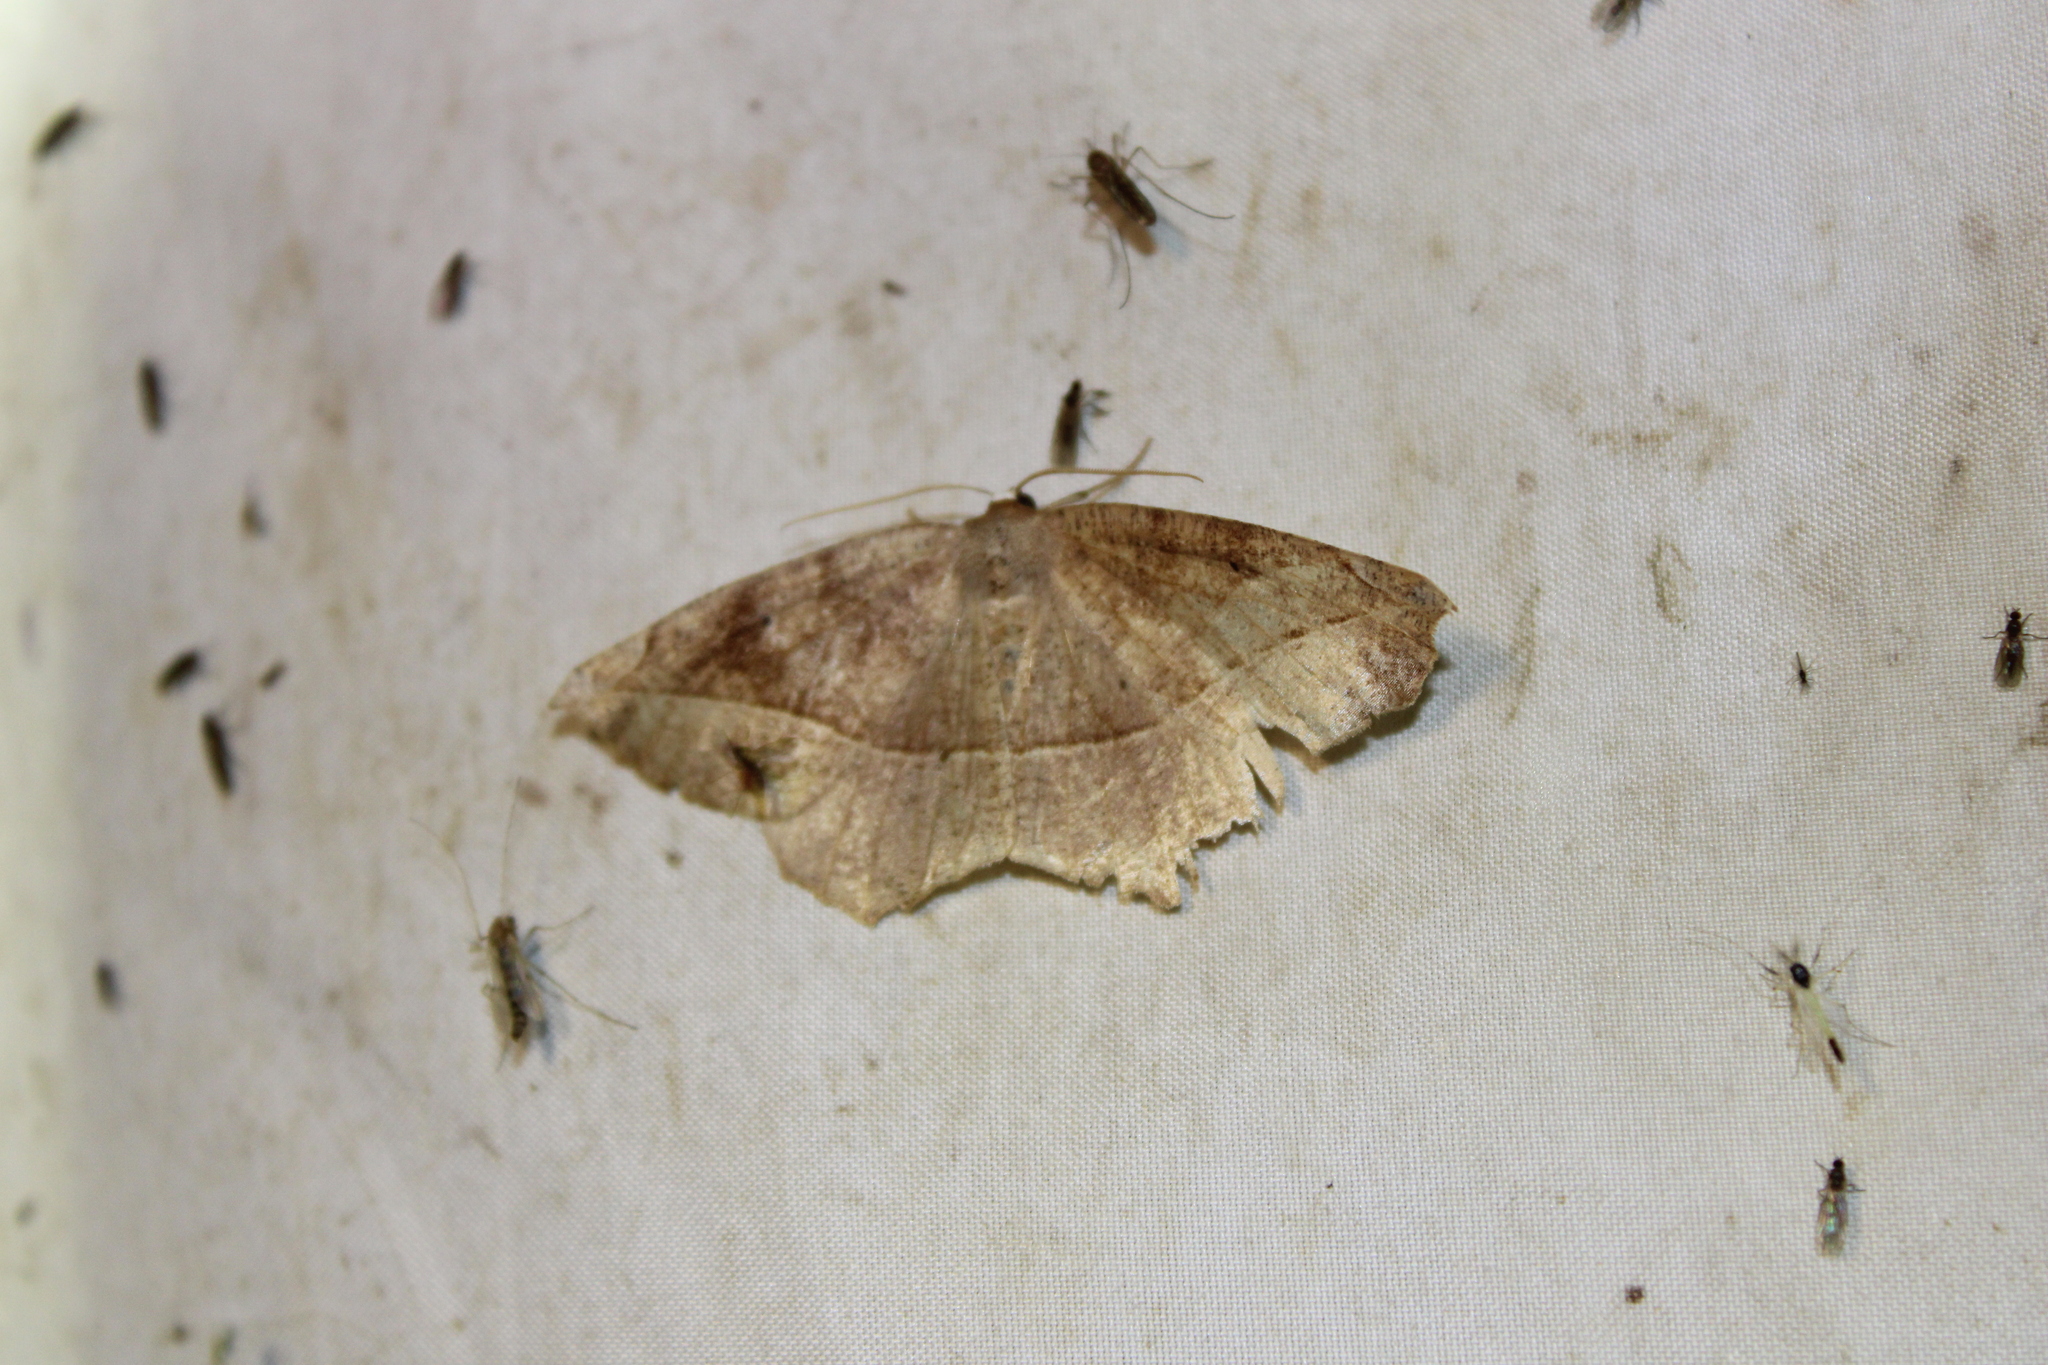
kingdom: Animalia
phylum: Arthropoda
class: Insecta
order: Lepidoptera
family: Geometridae
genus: Eutrapela
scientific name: Eutrapela clemataria
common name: Curved-toothed geometer
